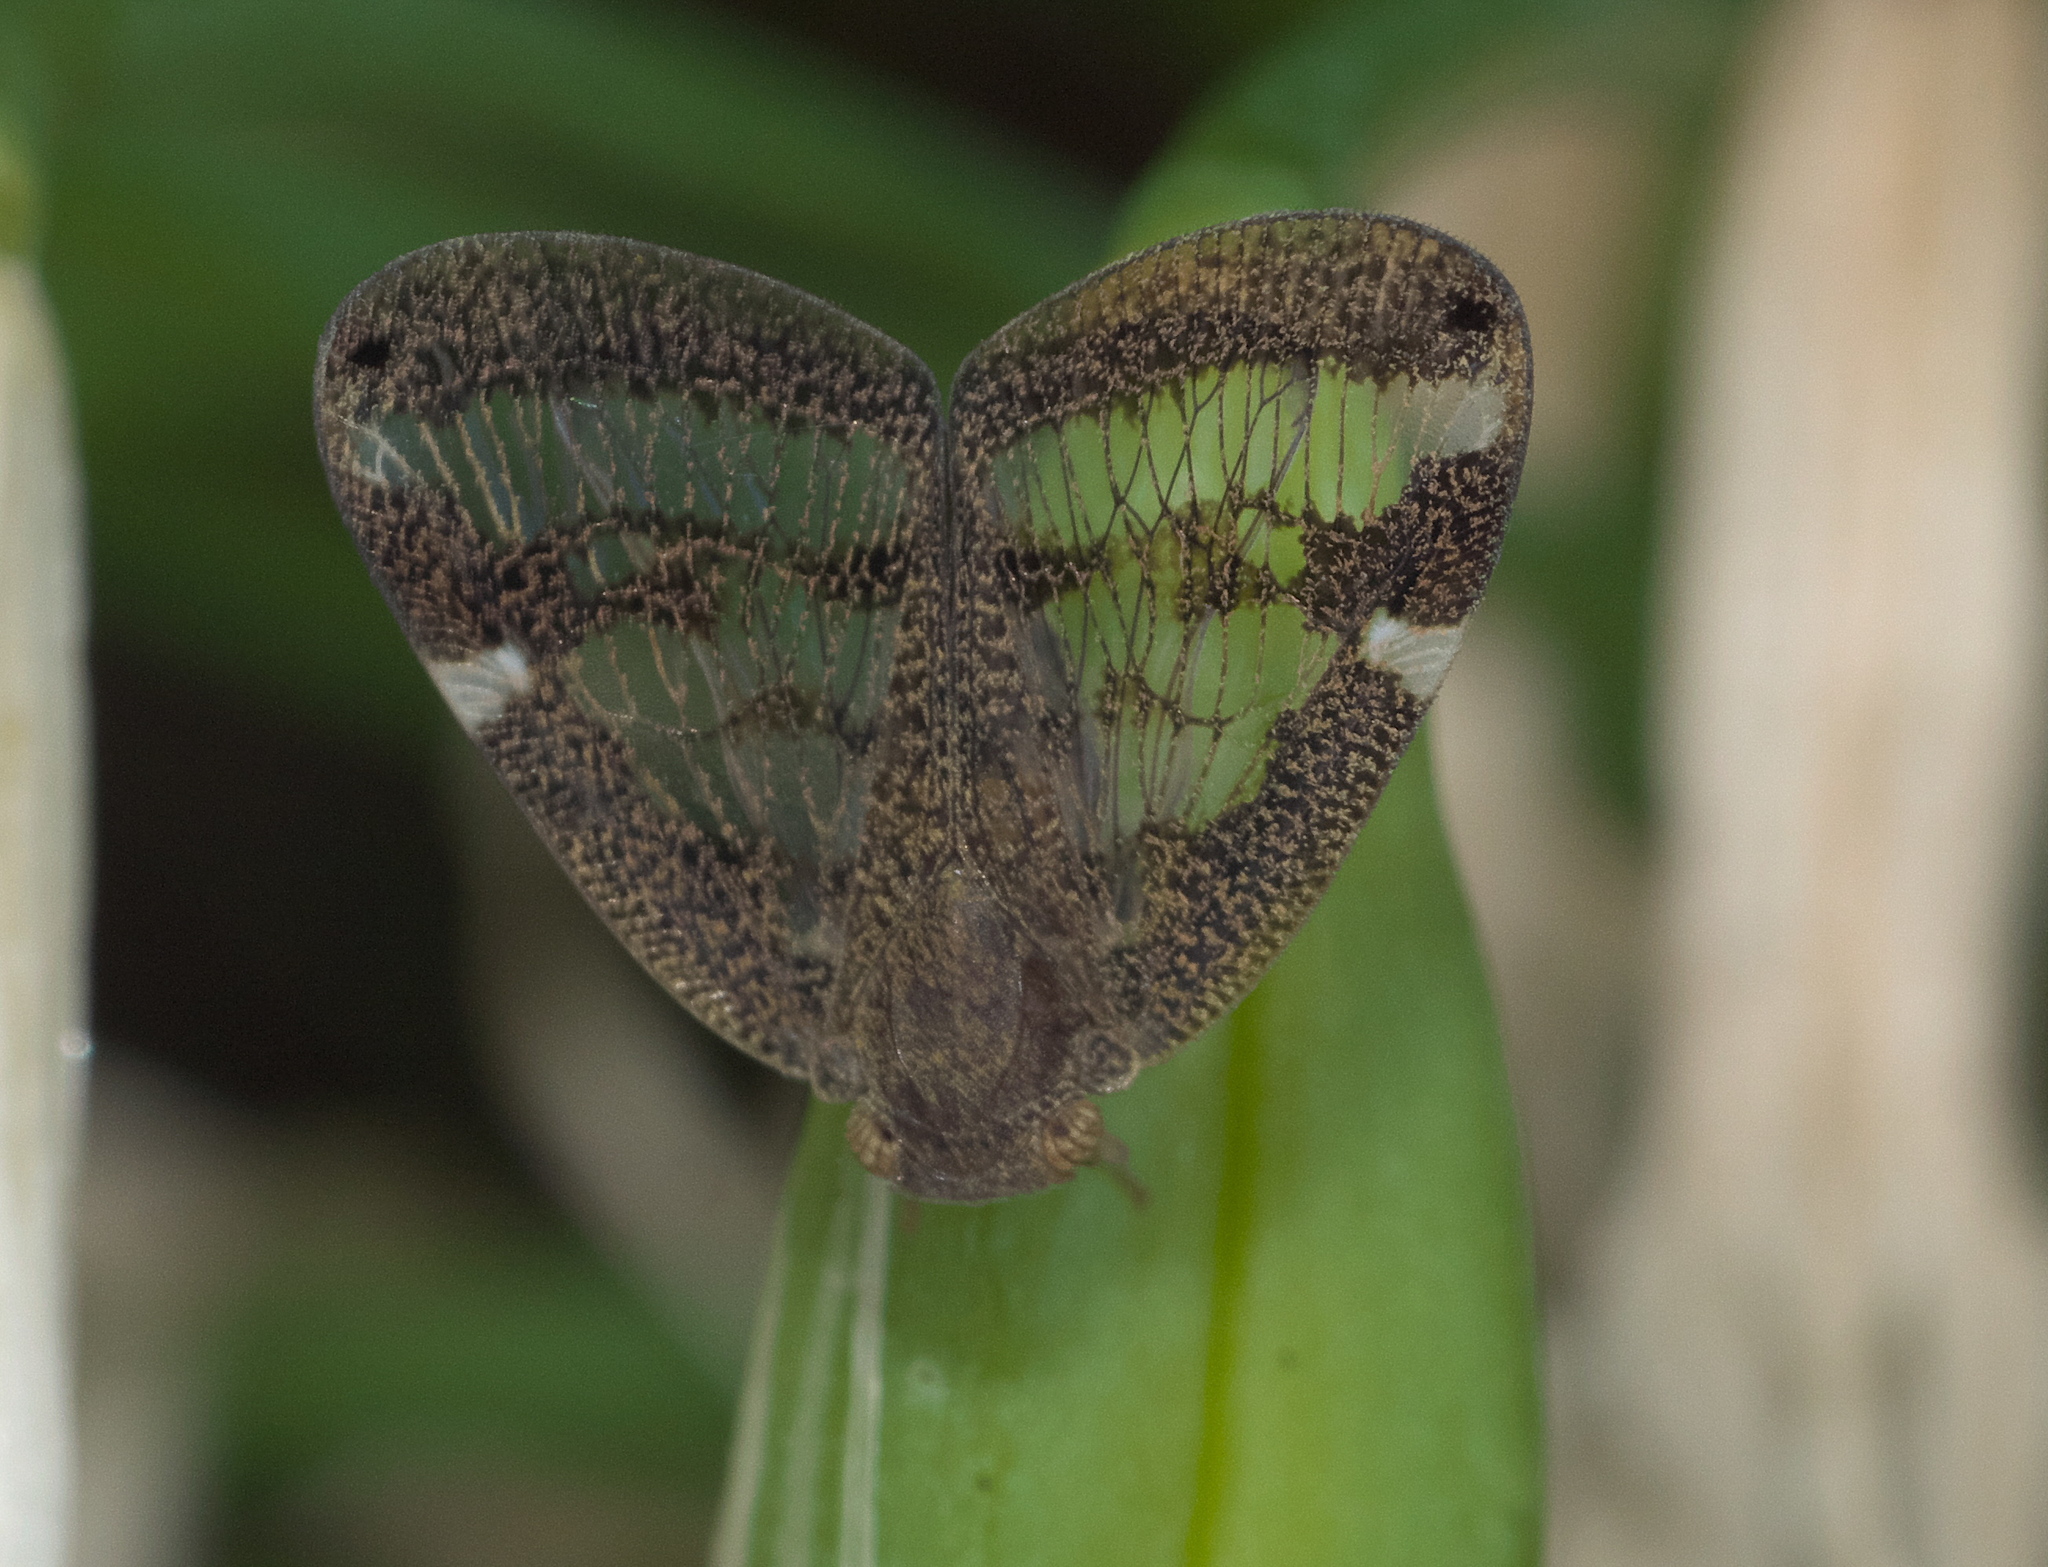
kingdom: Animalia
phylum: Arthropoda
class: Insecta
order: Hemiptera
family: Ricaniidae
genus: Scolypopa
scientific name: Scolypopa australis
